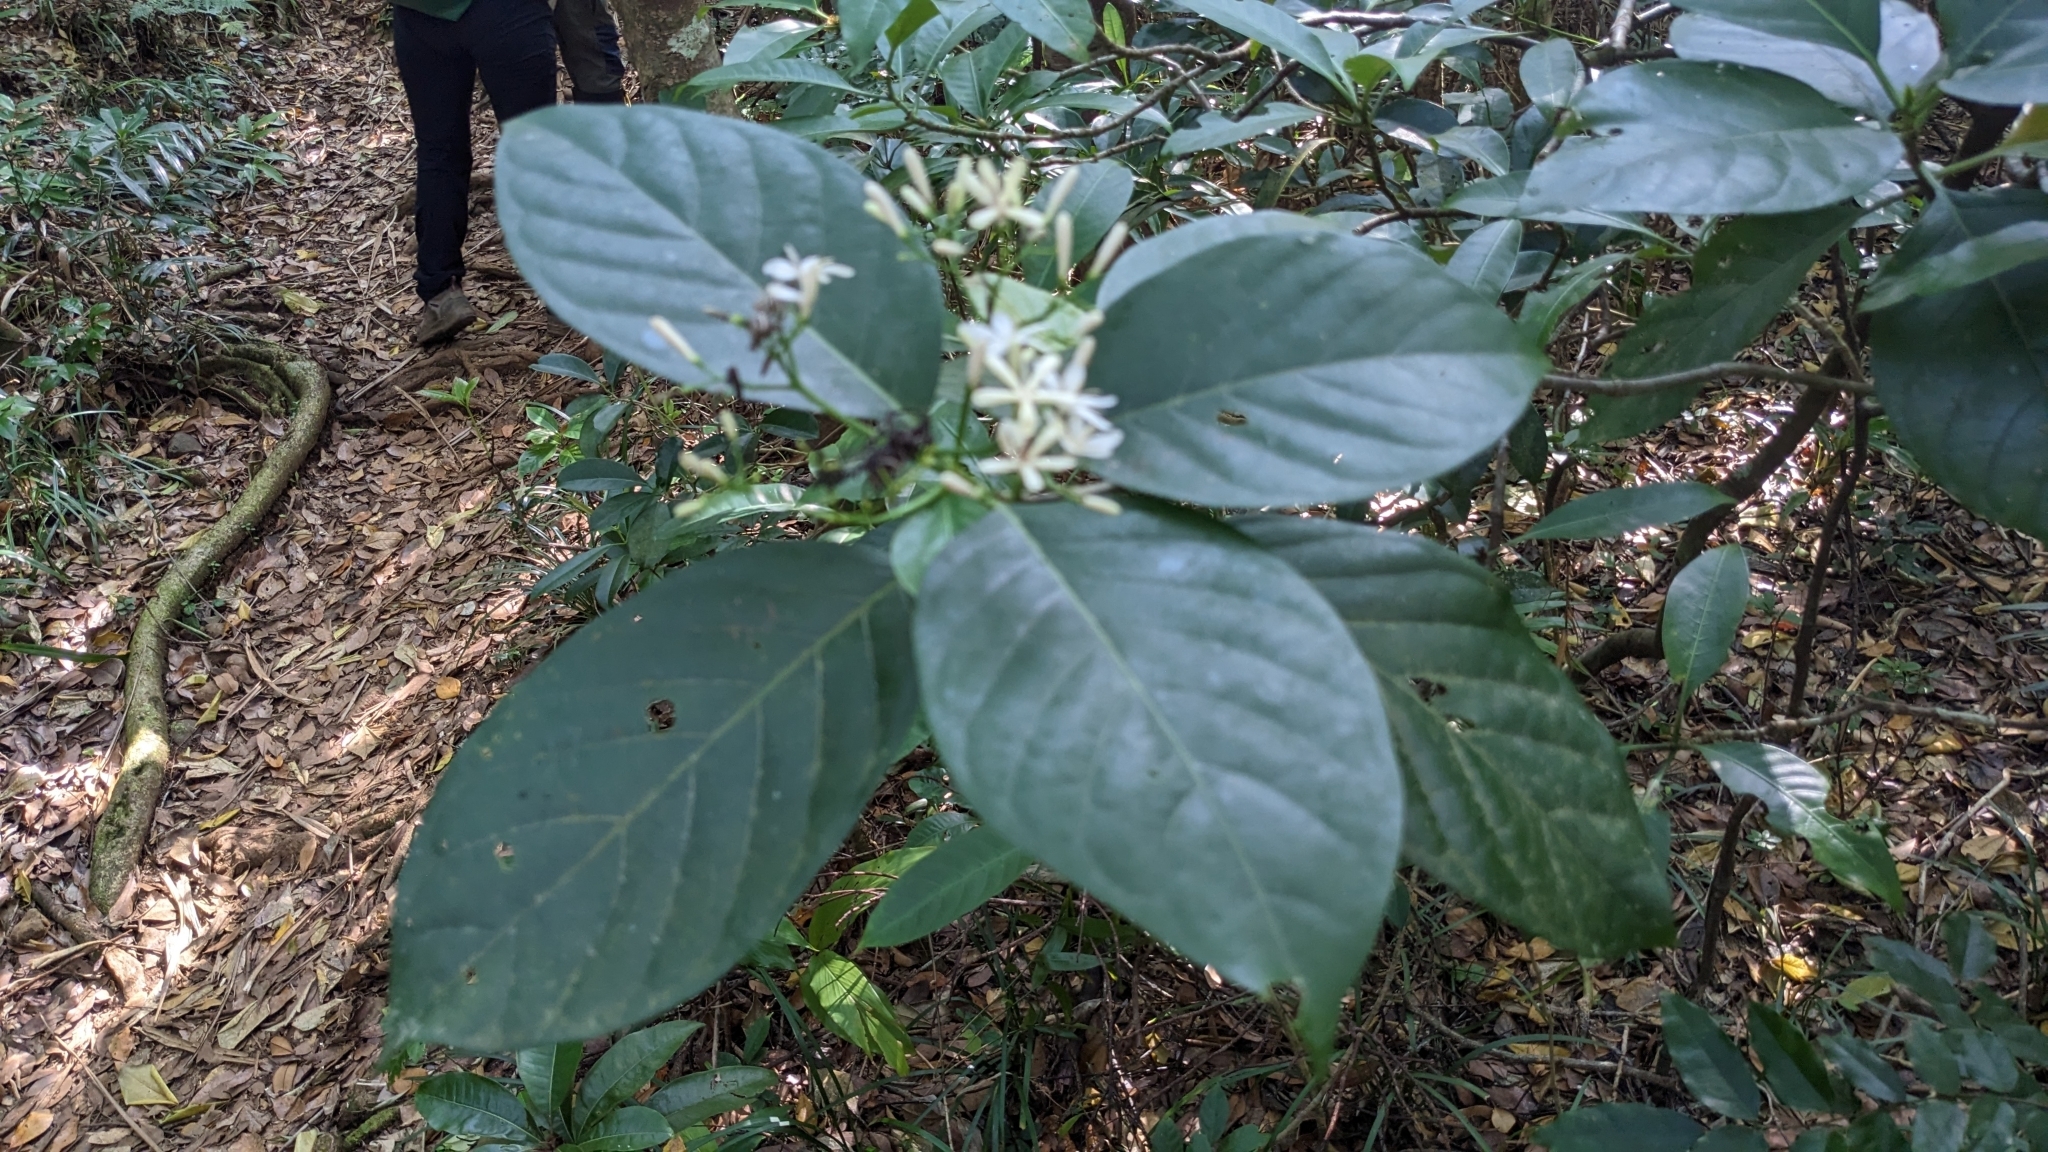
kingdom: Plantae
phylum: Tracheophyta
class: Magnoliopsida
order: Gentianales
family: Rubiaceae
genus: Tarenna
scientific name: Tarenna asiatica
